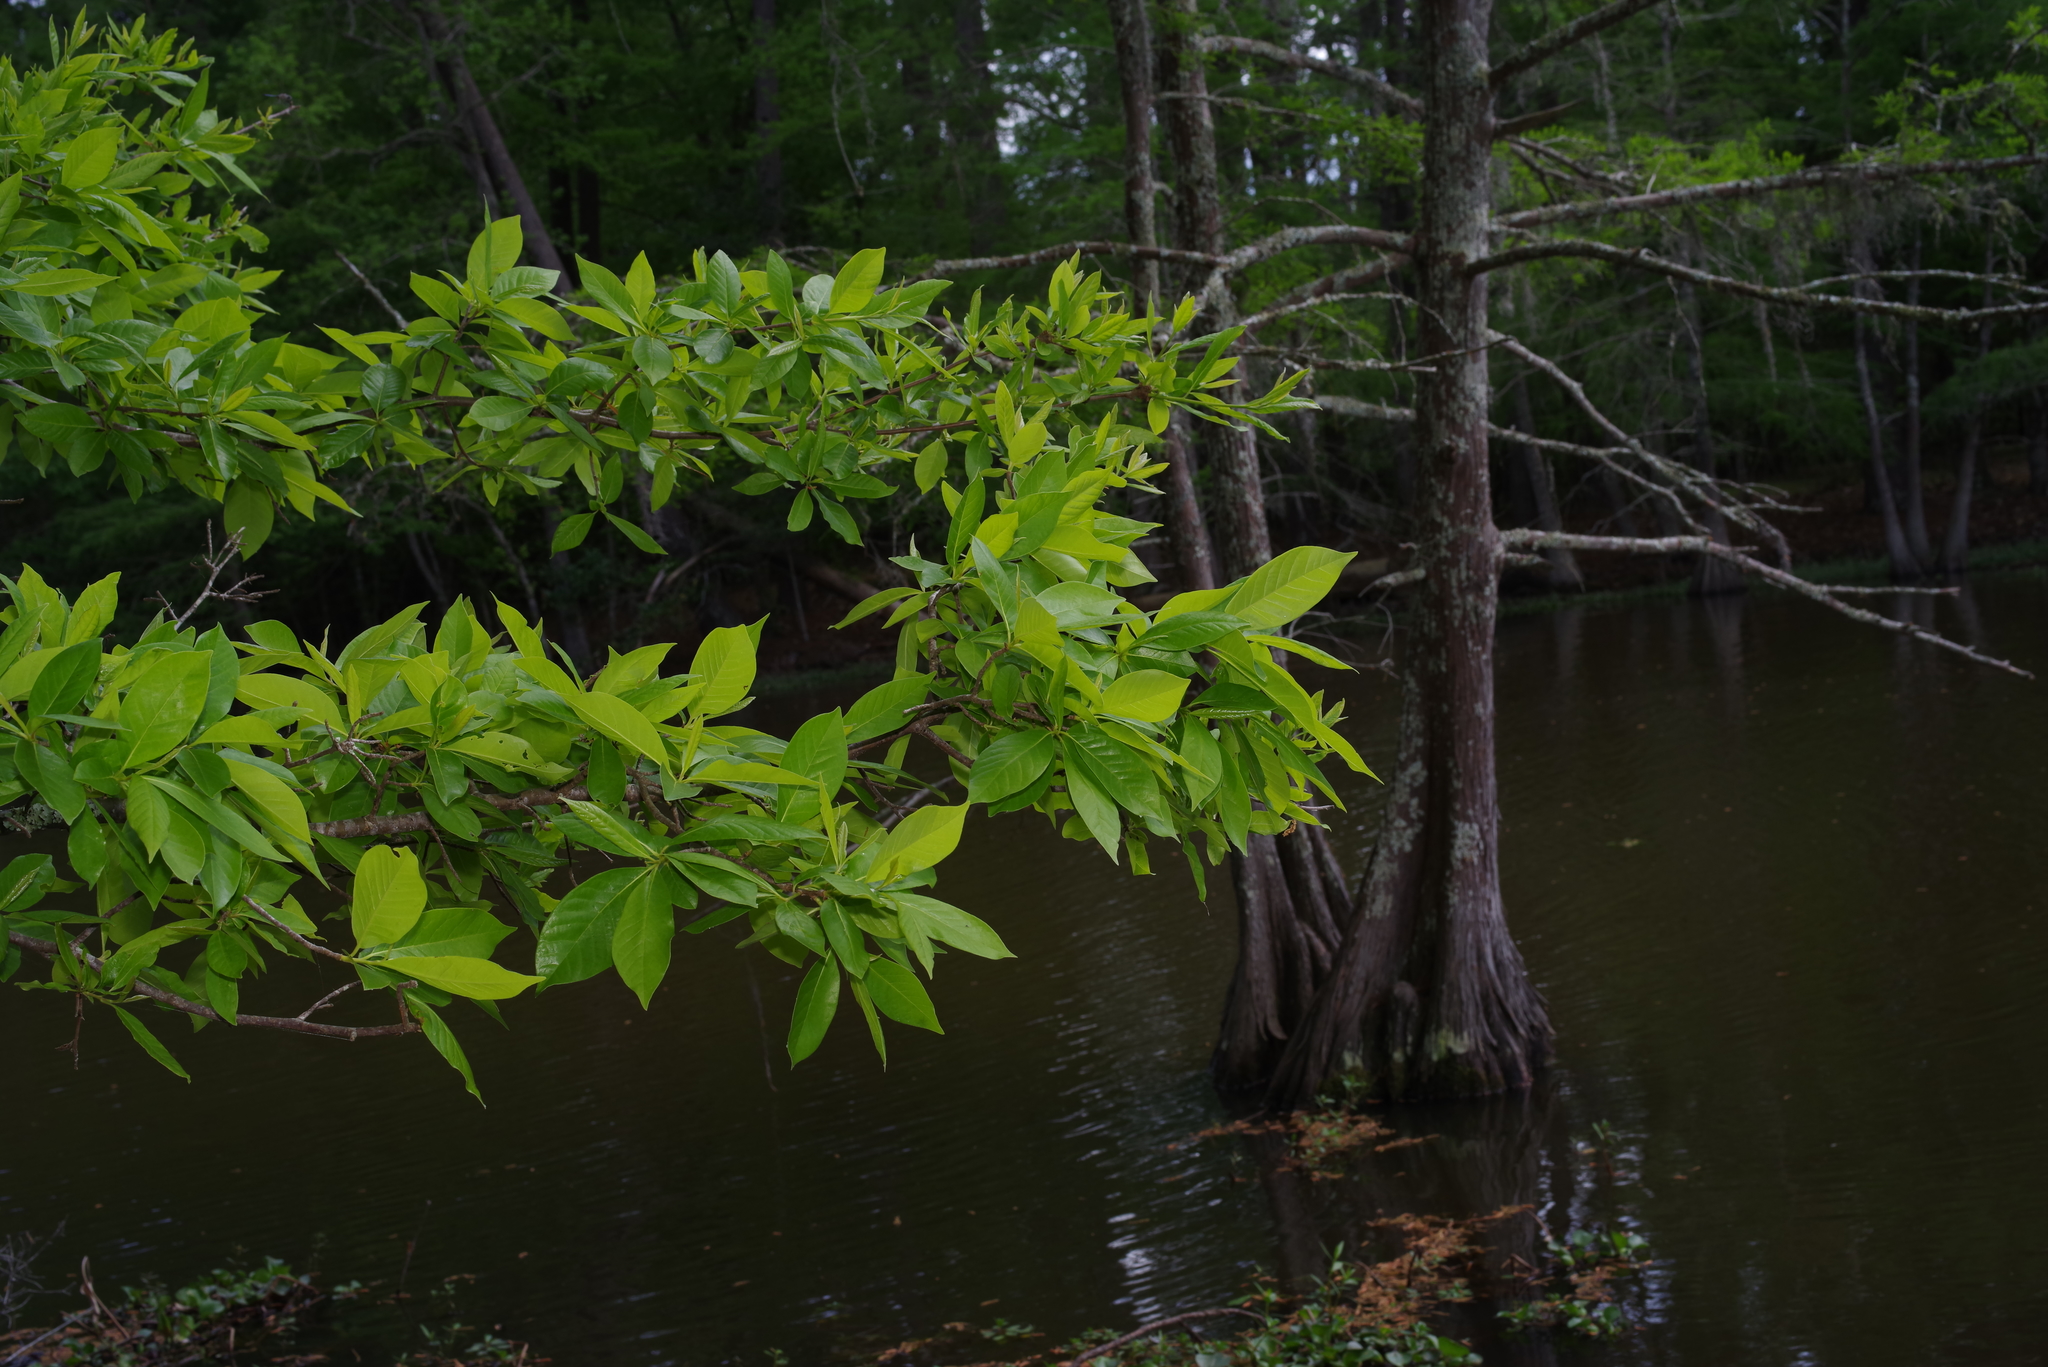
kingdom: Plantae
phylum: Tracheophyta
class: Magnoliopsida
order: Cornales
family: Nyssaceae
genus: Nyssa
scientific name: Nyssa sylvatica
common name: Black tupelo
